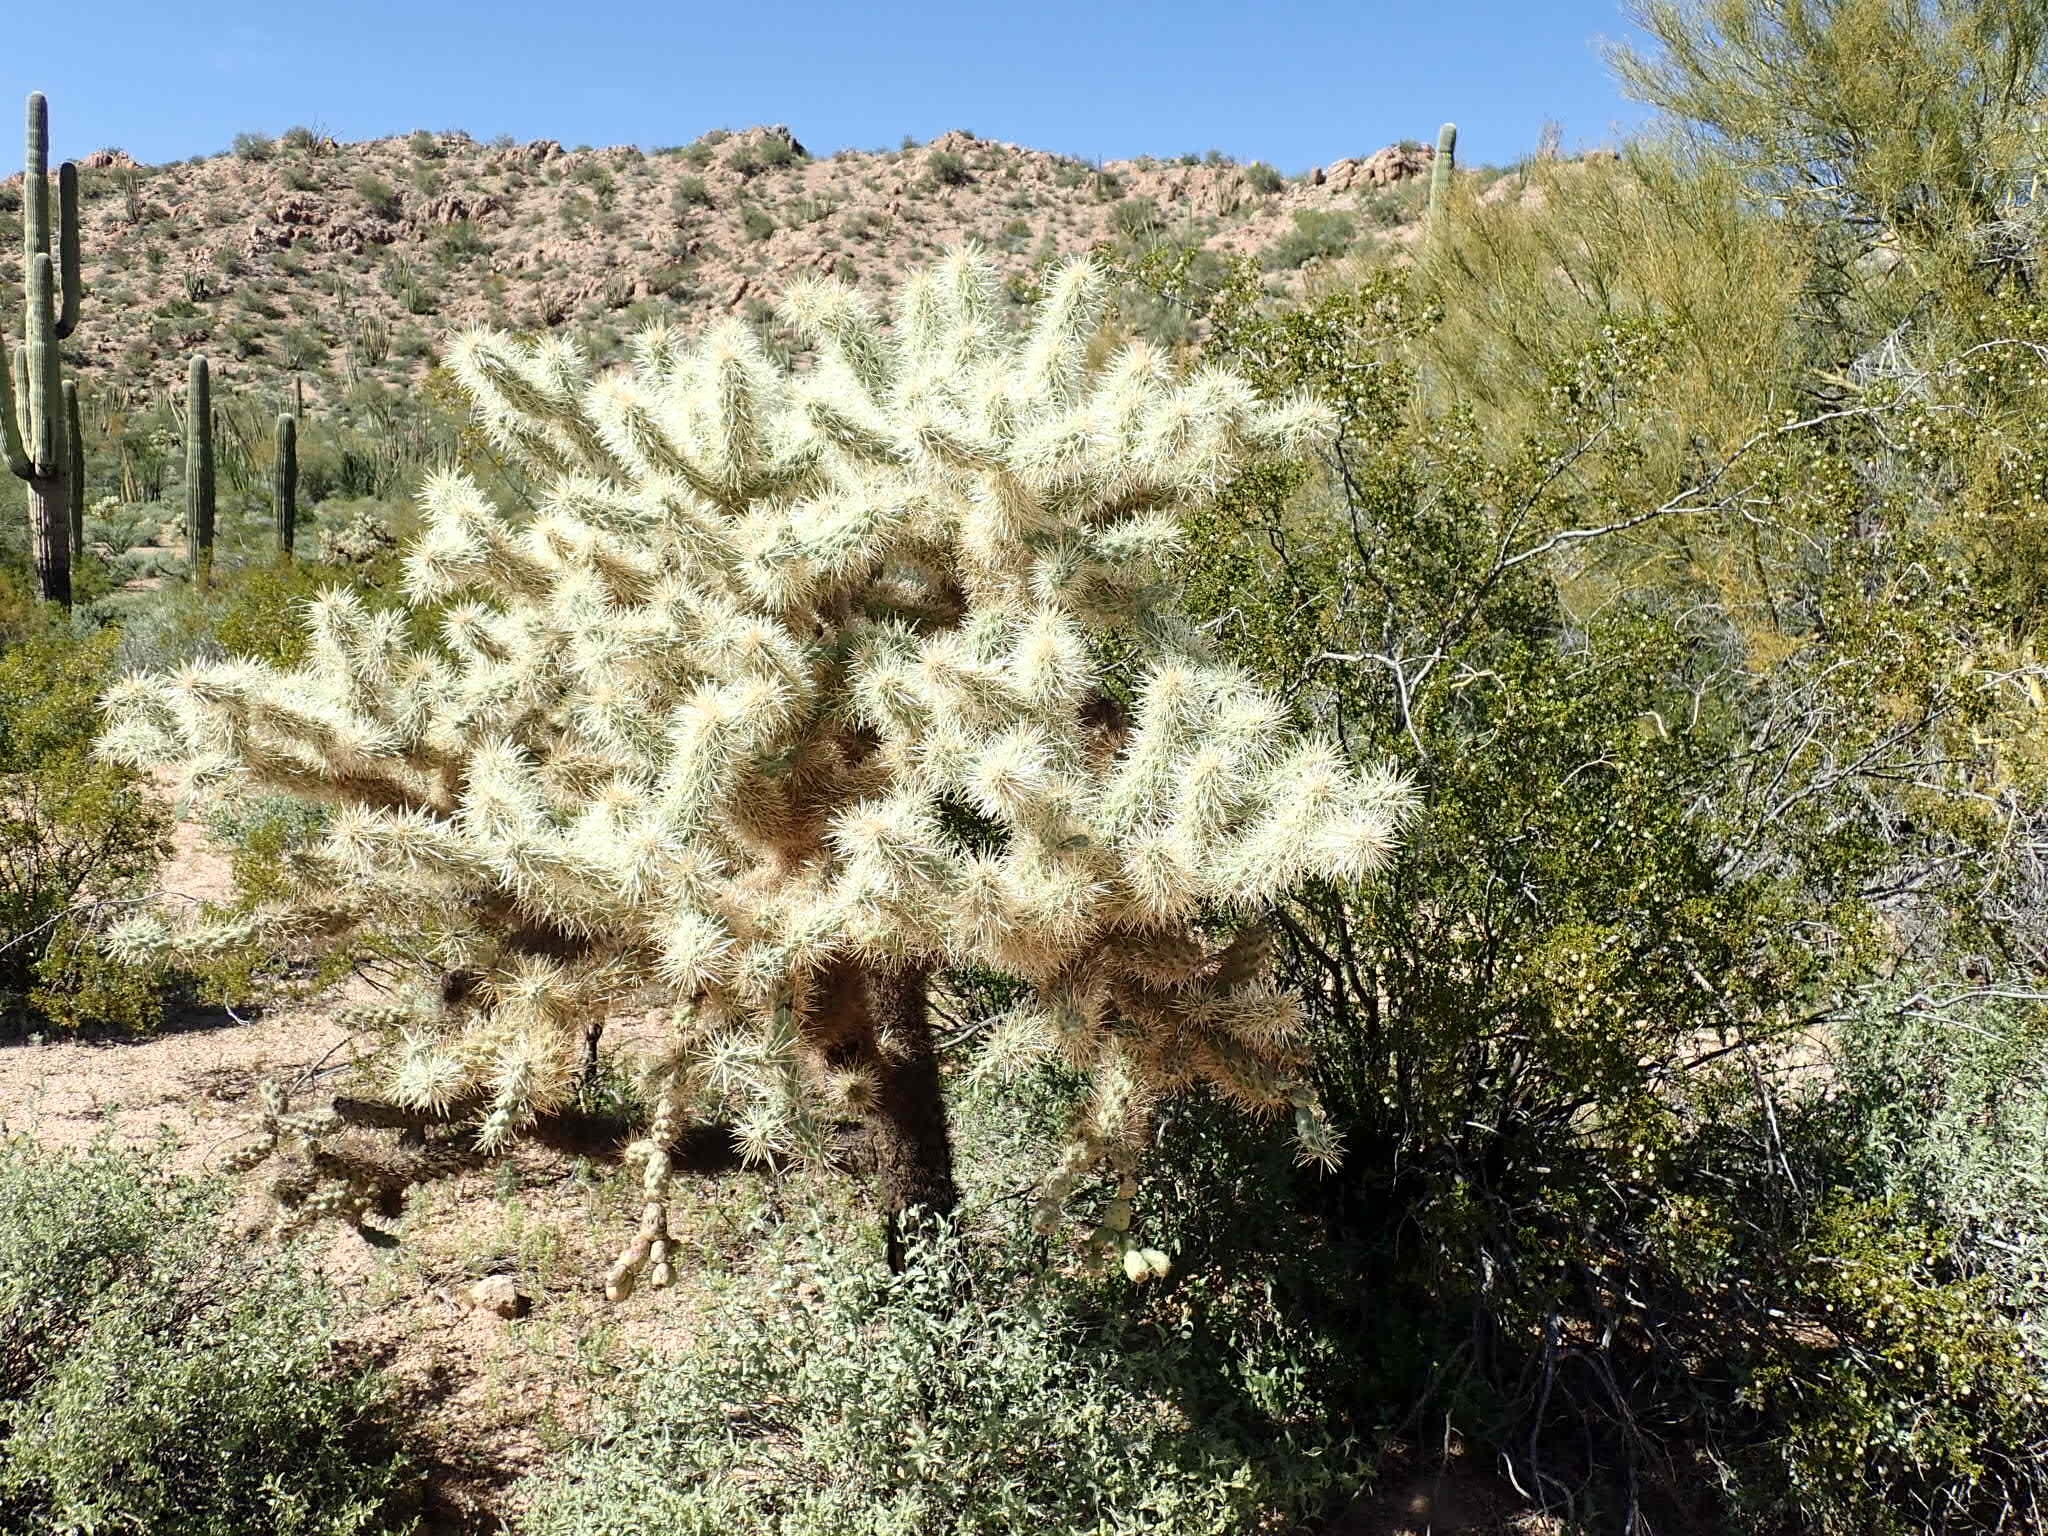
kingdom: Plantae
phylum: Tracheophyta
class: Magnoliopsida
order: Caryophyllales
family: Cactaceae
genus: Cylindropuntia
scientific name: Cylindropuntia fulgida
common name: Jumping cholla
